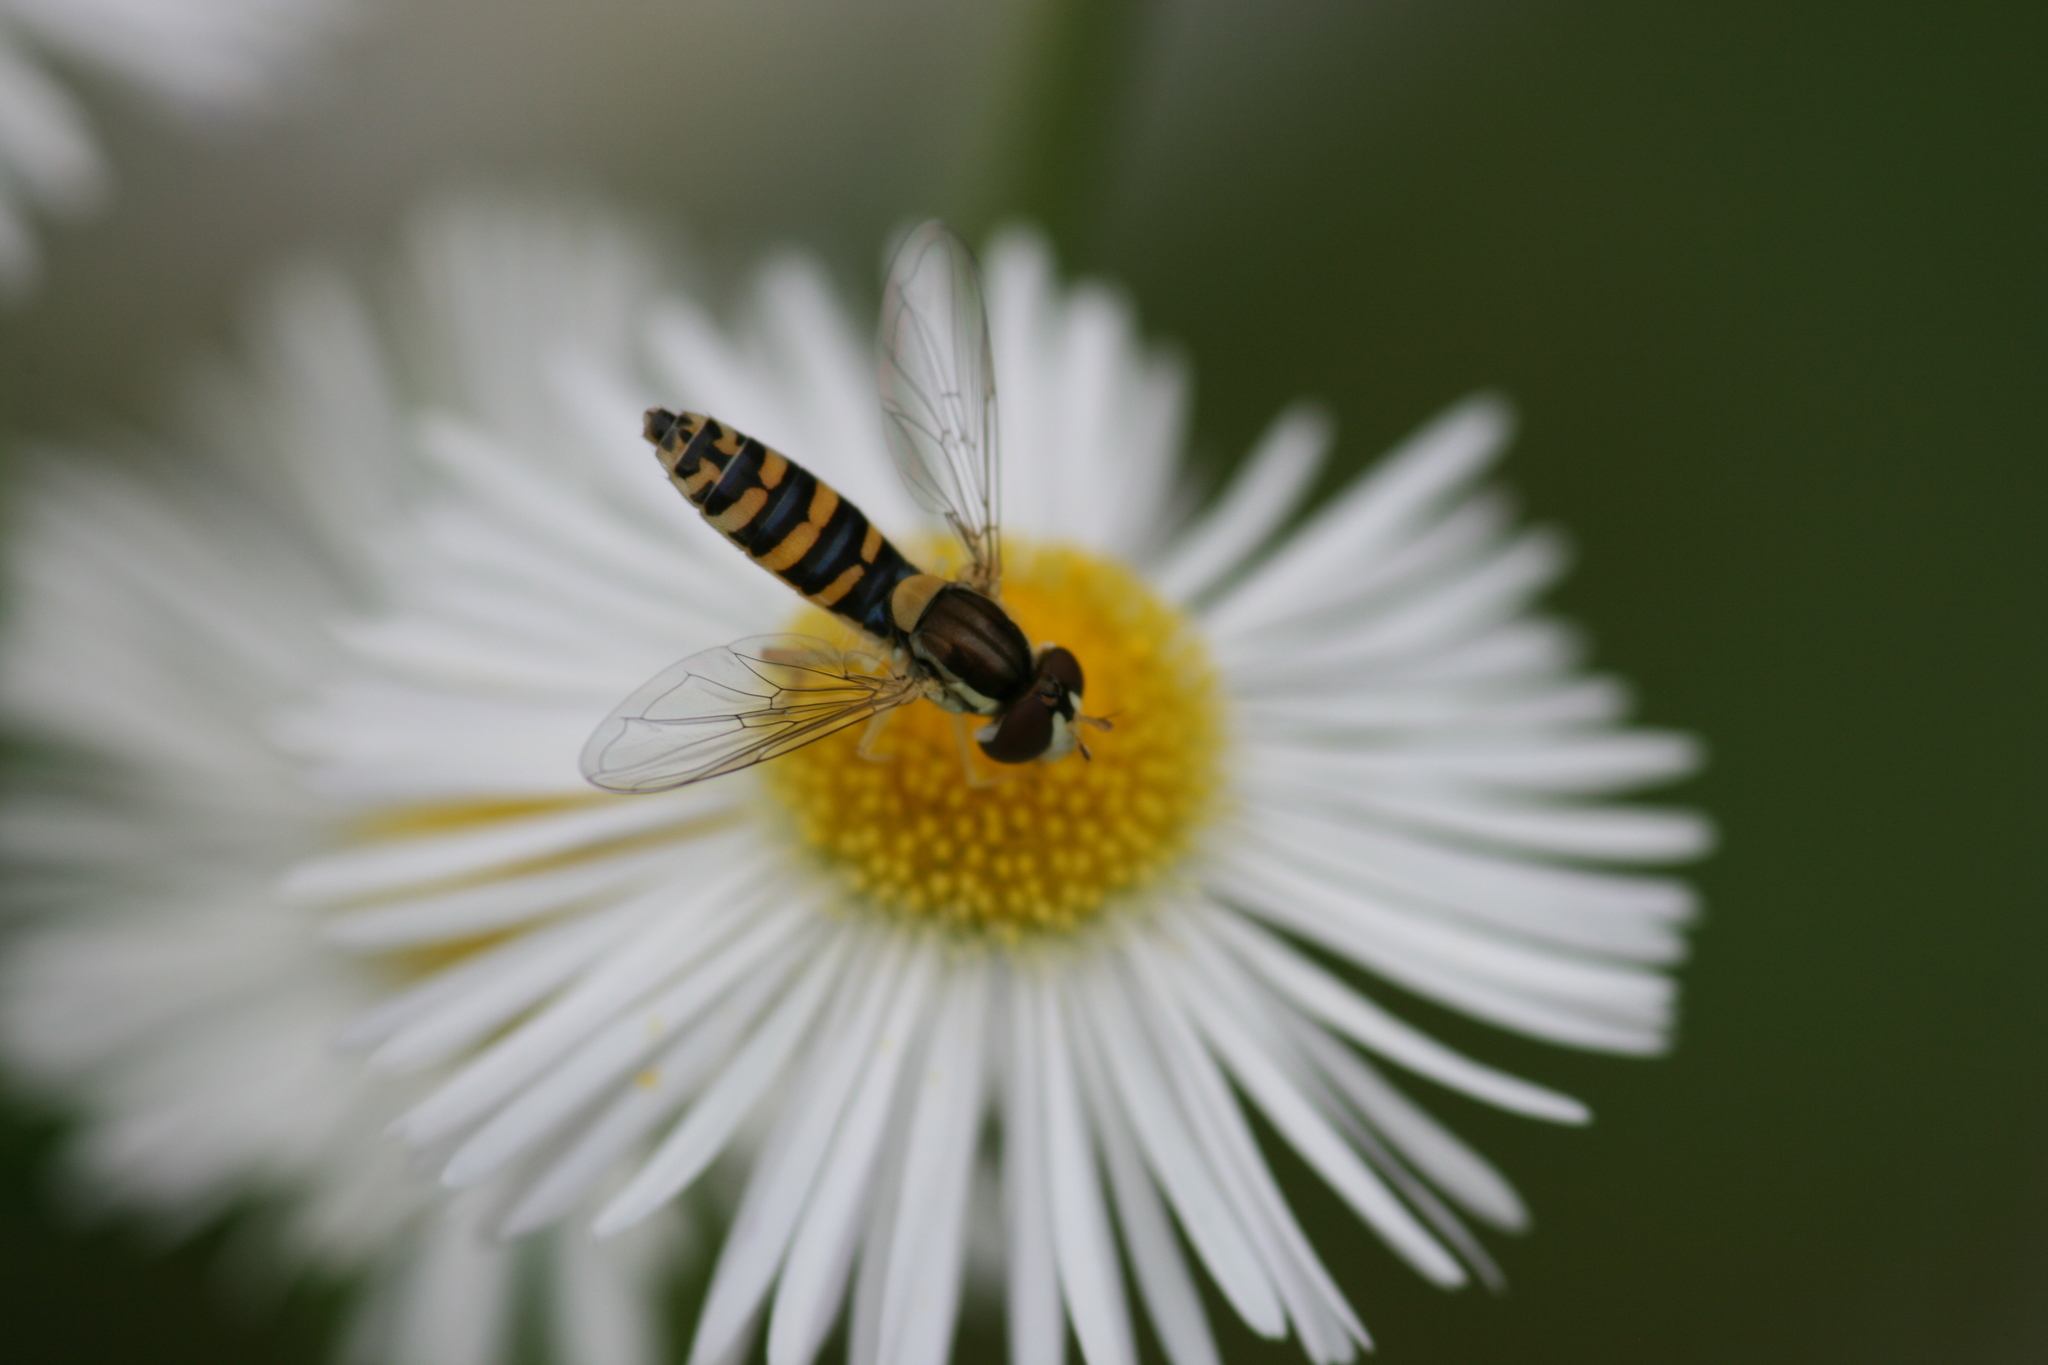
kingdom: Animalia
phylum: Arthropoda
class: Insecta
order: Diptera
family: Syrphidae
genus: Sphaerophoria
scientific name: Sphaerophoria
